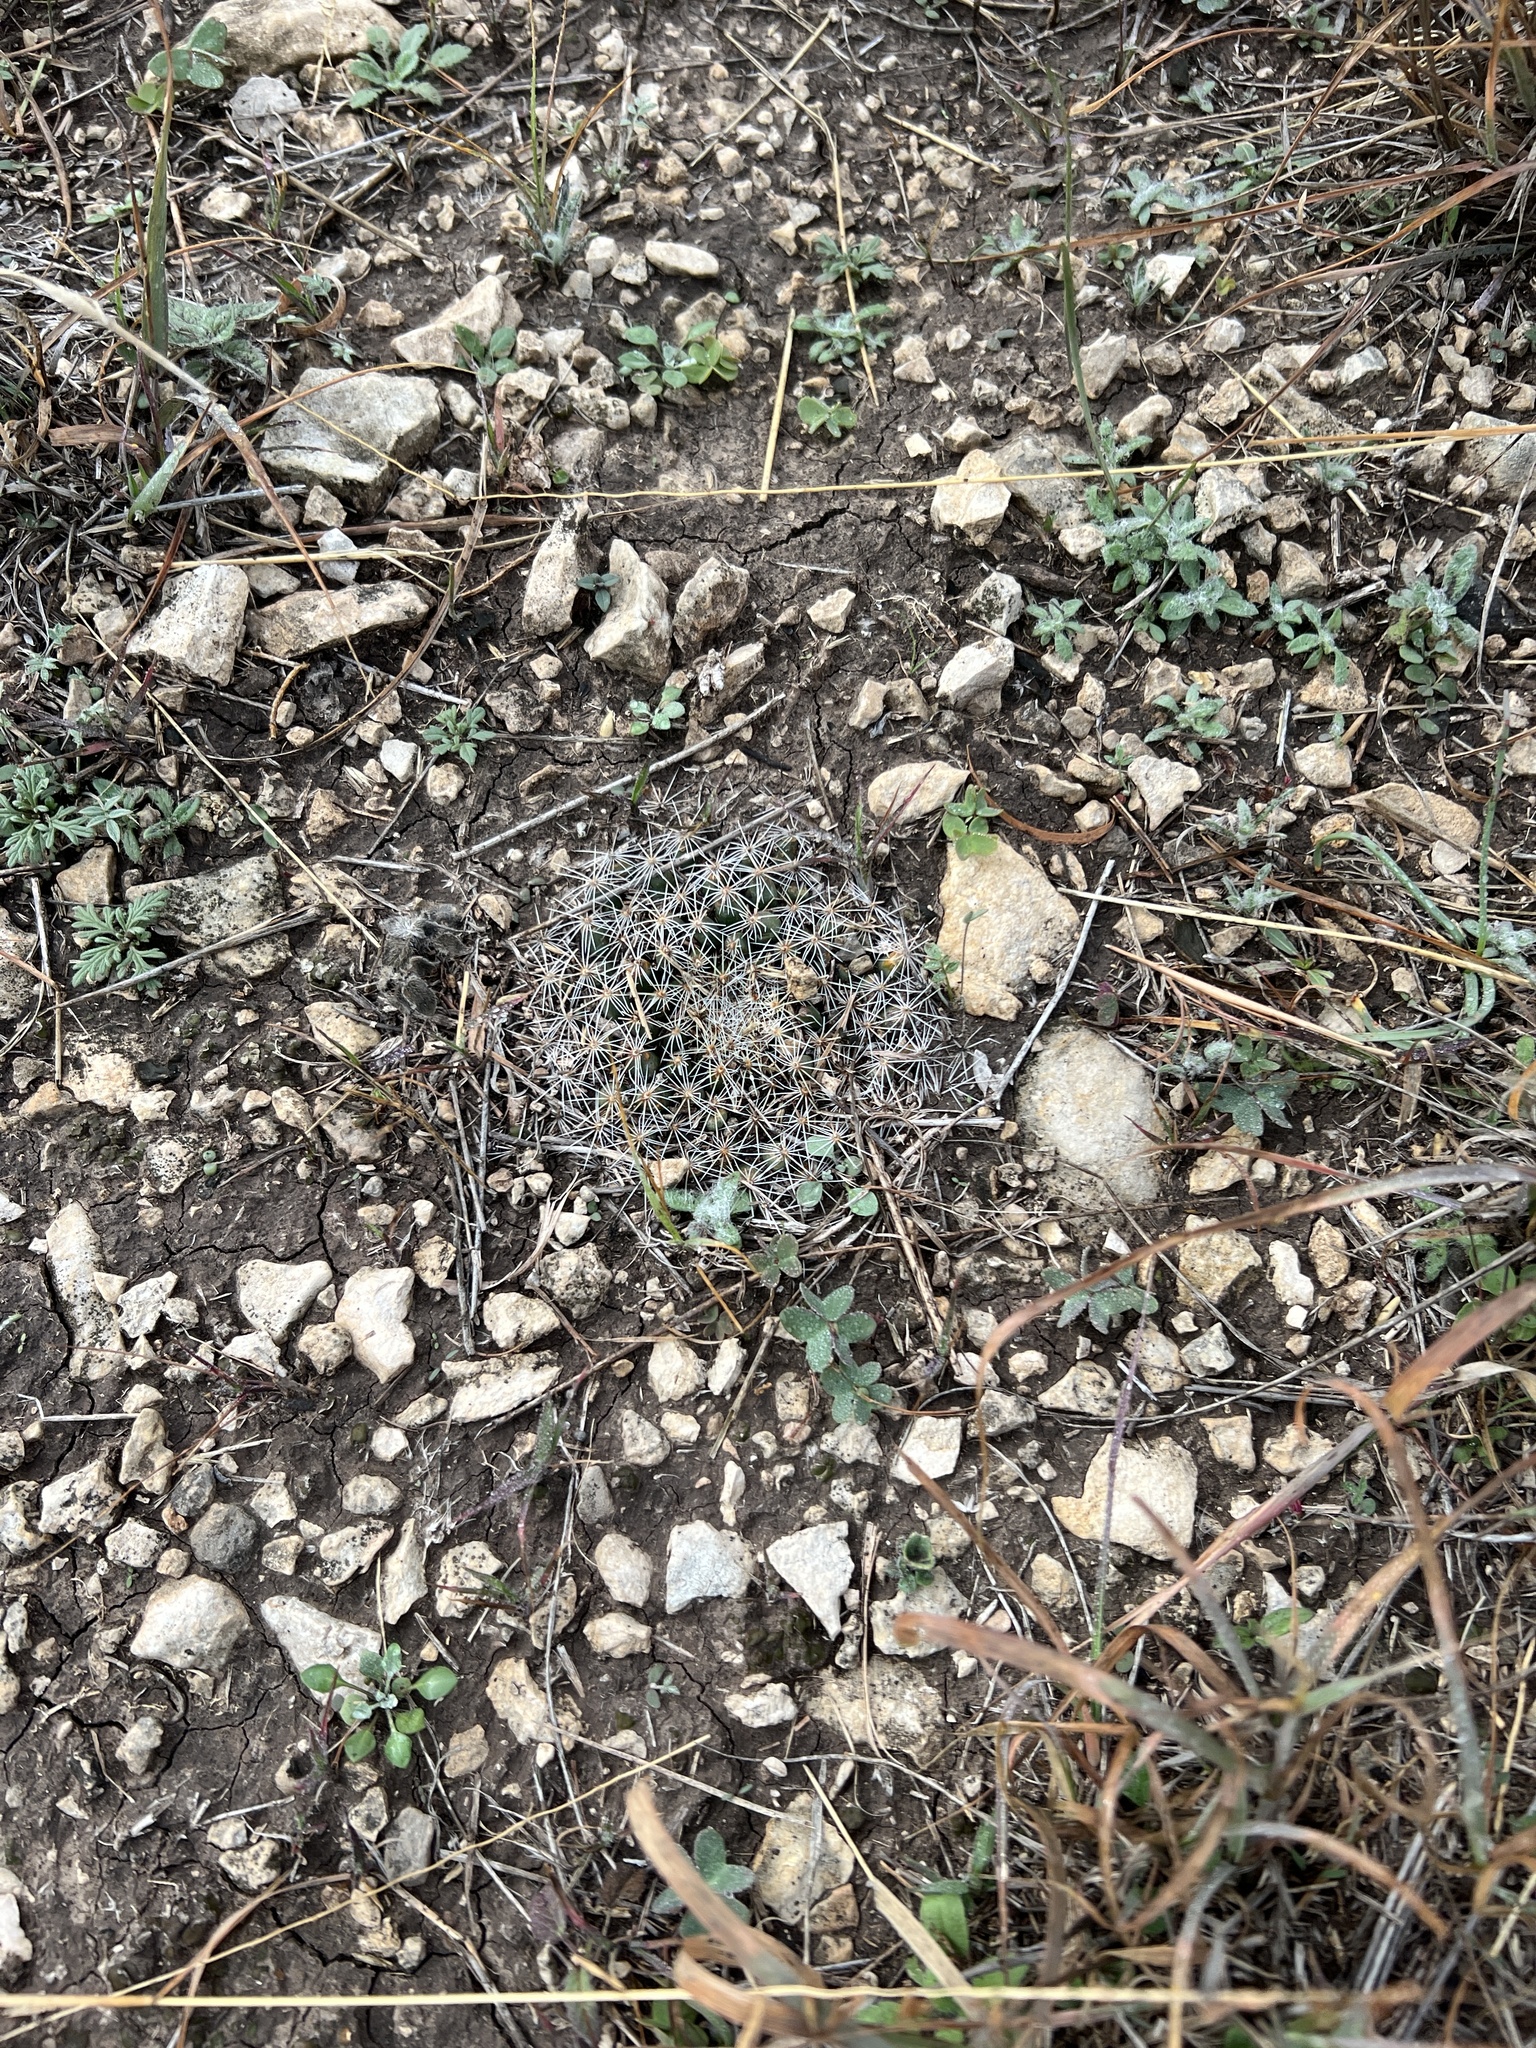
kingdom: Plantae
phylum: Tracheophyta
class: Magnoliopsida
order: Caryophyllales
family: Cactaceae
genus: Mammillaria
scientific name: Mammillaria heyderi
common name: Little nipple cactus
